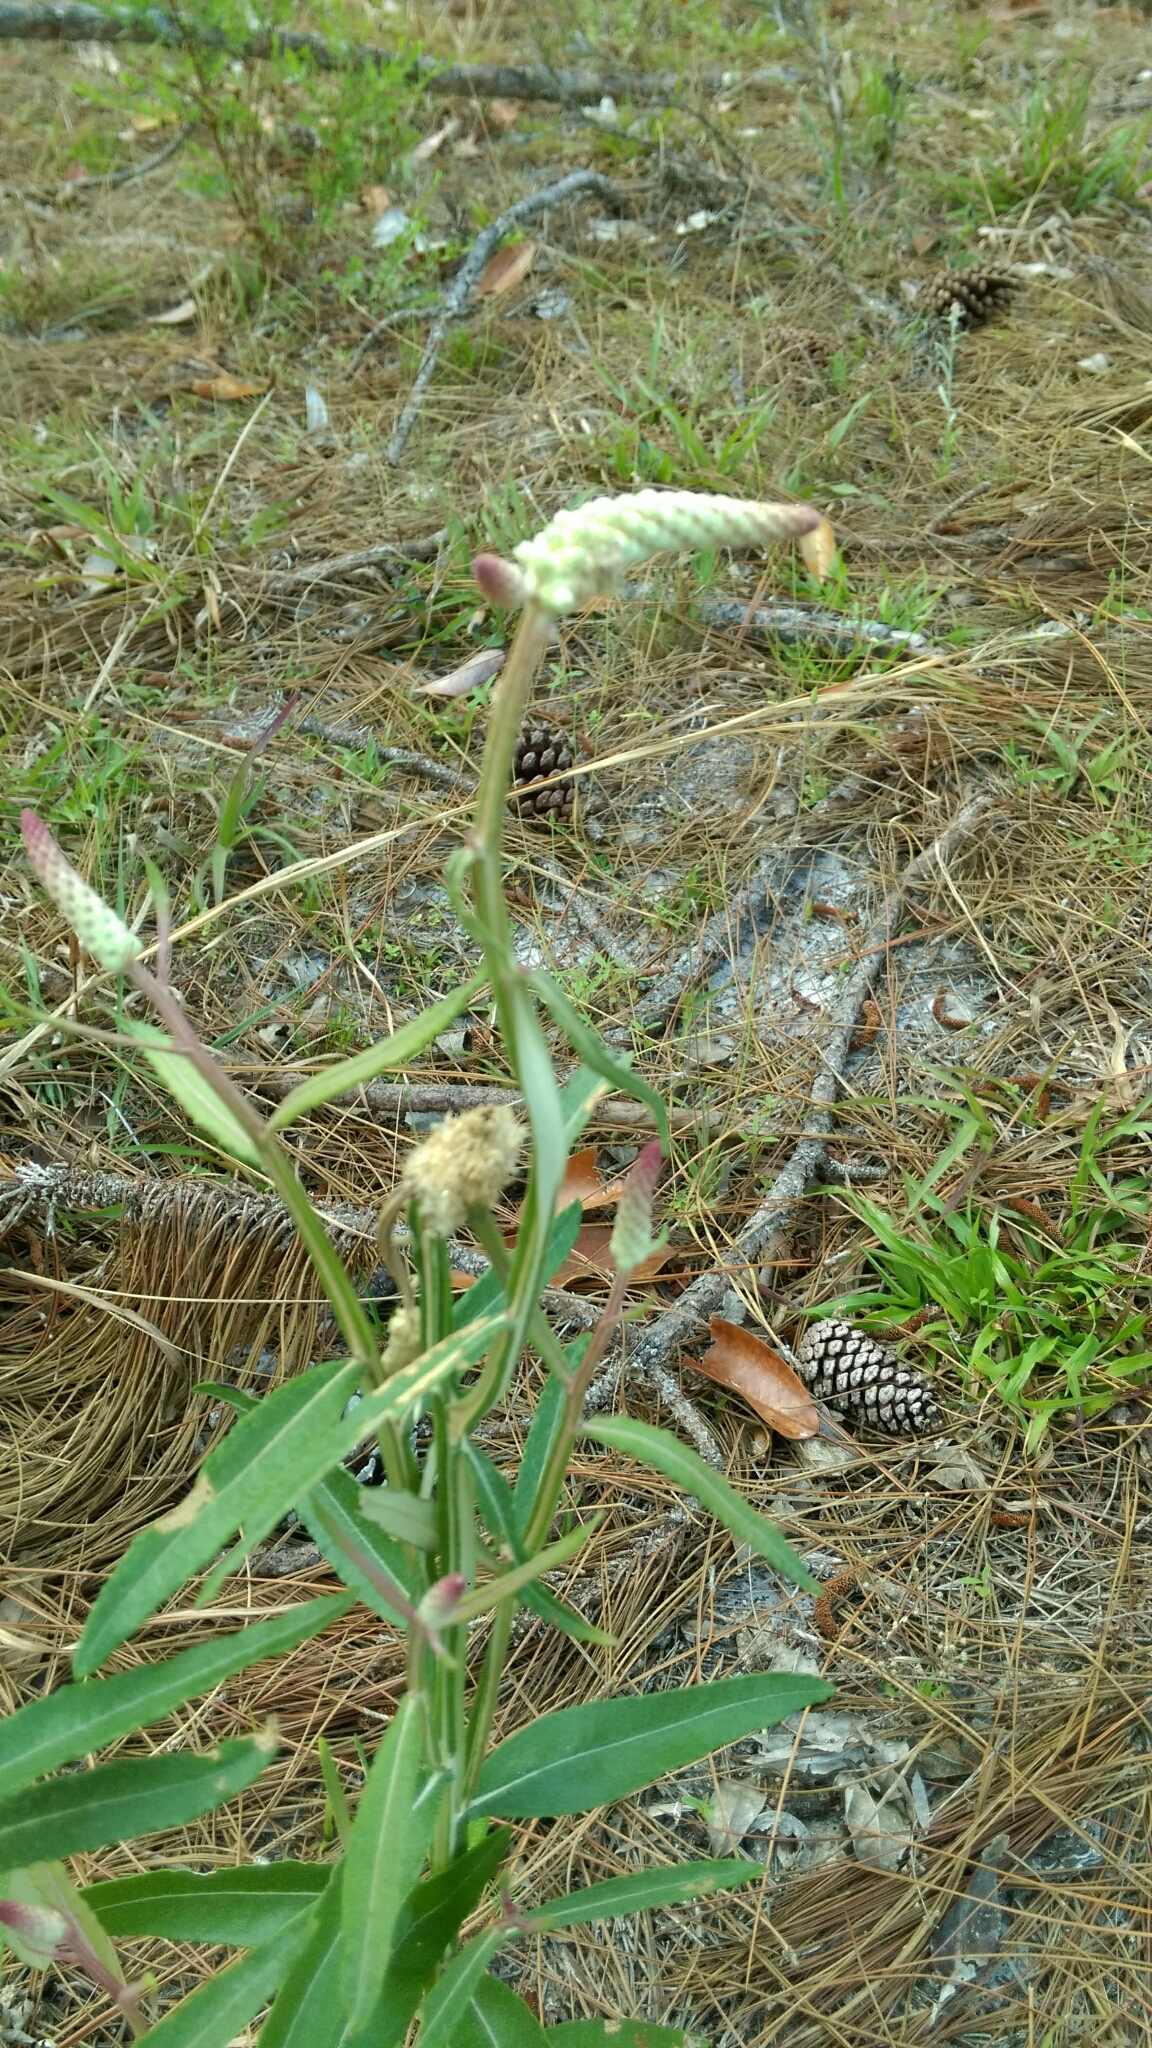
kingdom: Plantae
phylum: Tracheophyta
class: Magnoliopsida
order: Asterales
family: Asteraceae
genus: Pterocaulon
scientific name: Pterocaulon pycnostachyum
